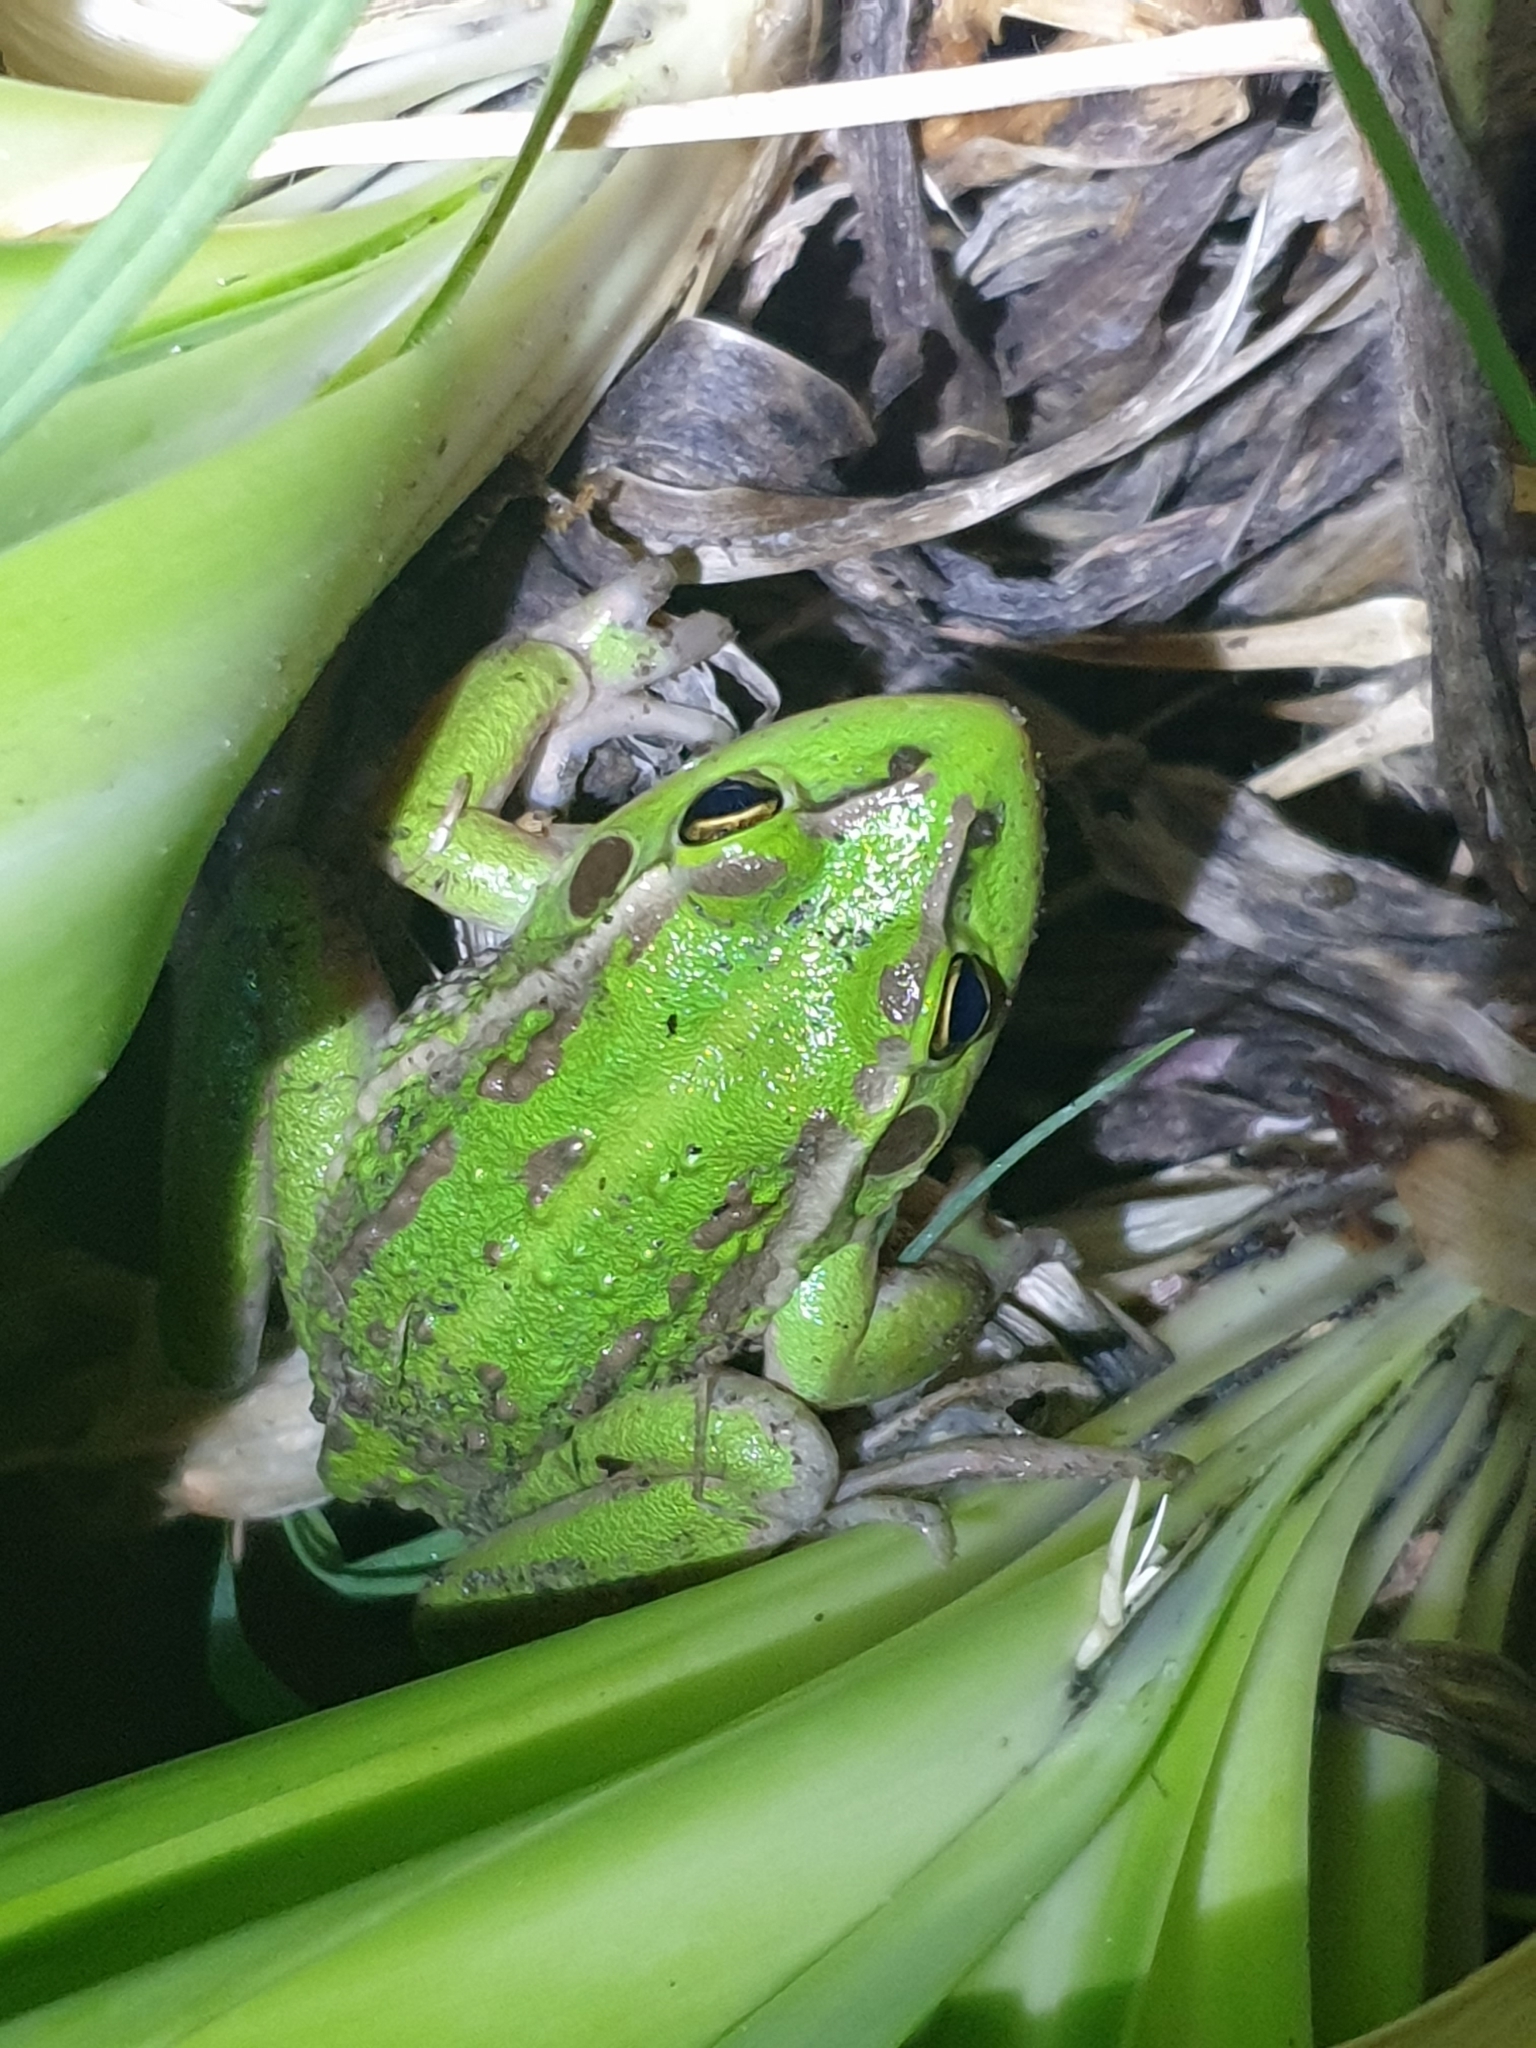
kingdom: Animalia
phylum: Chordata
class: Amphibia
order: Anura
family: Pelodryadidae
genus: Ranoidea
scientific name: Ranoidea raniformis
